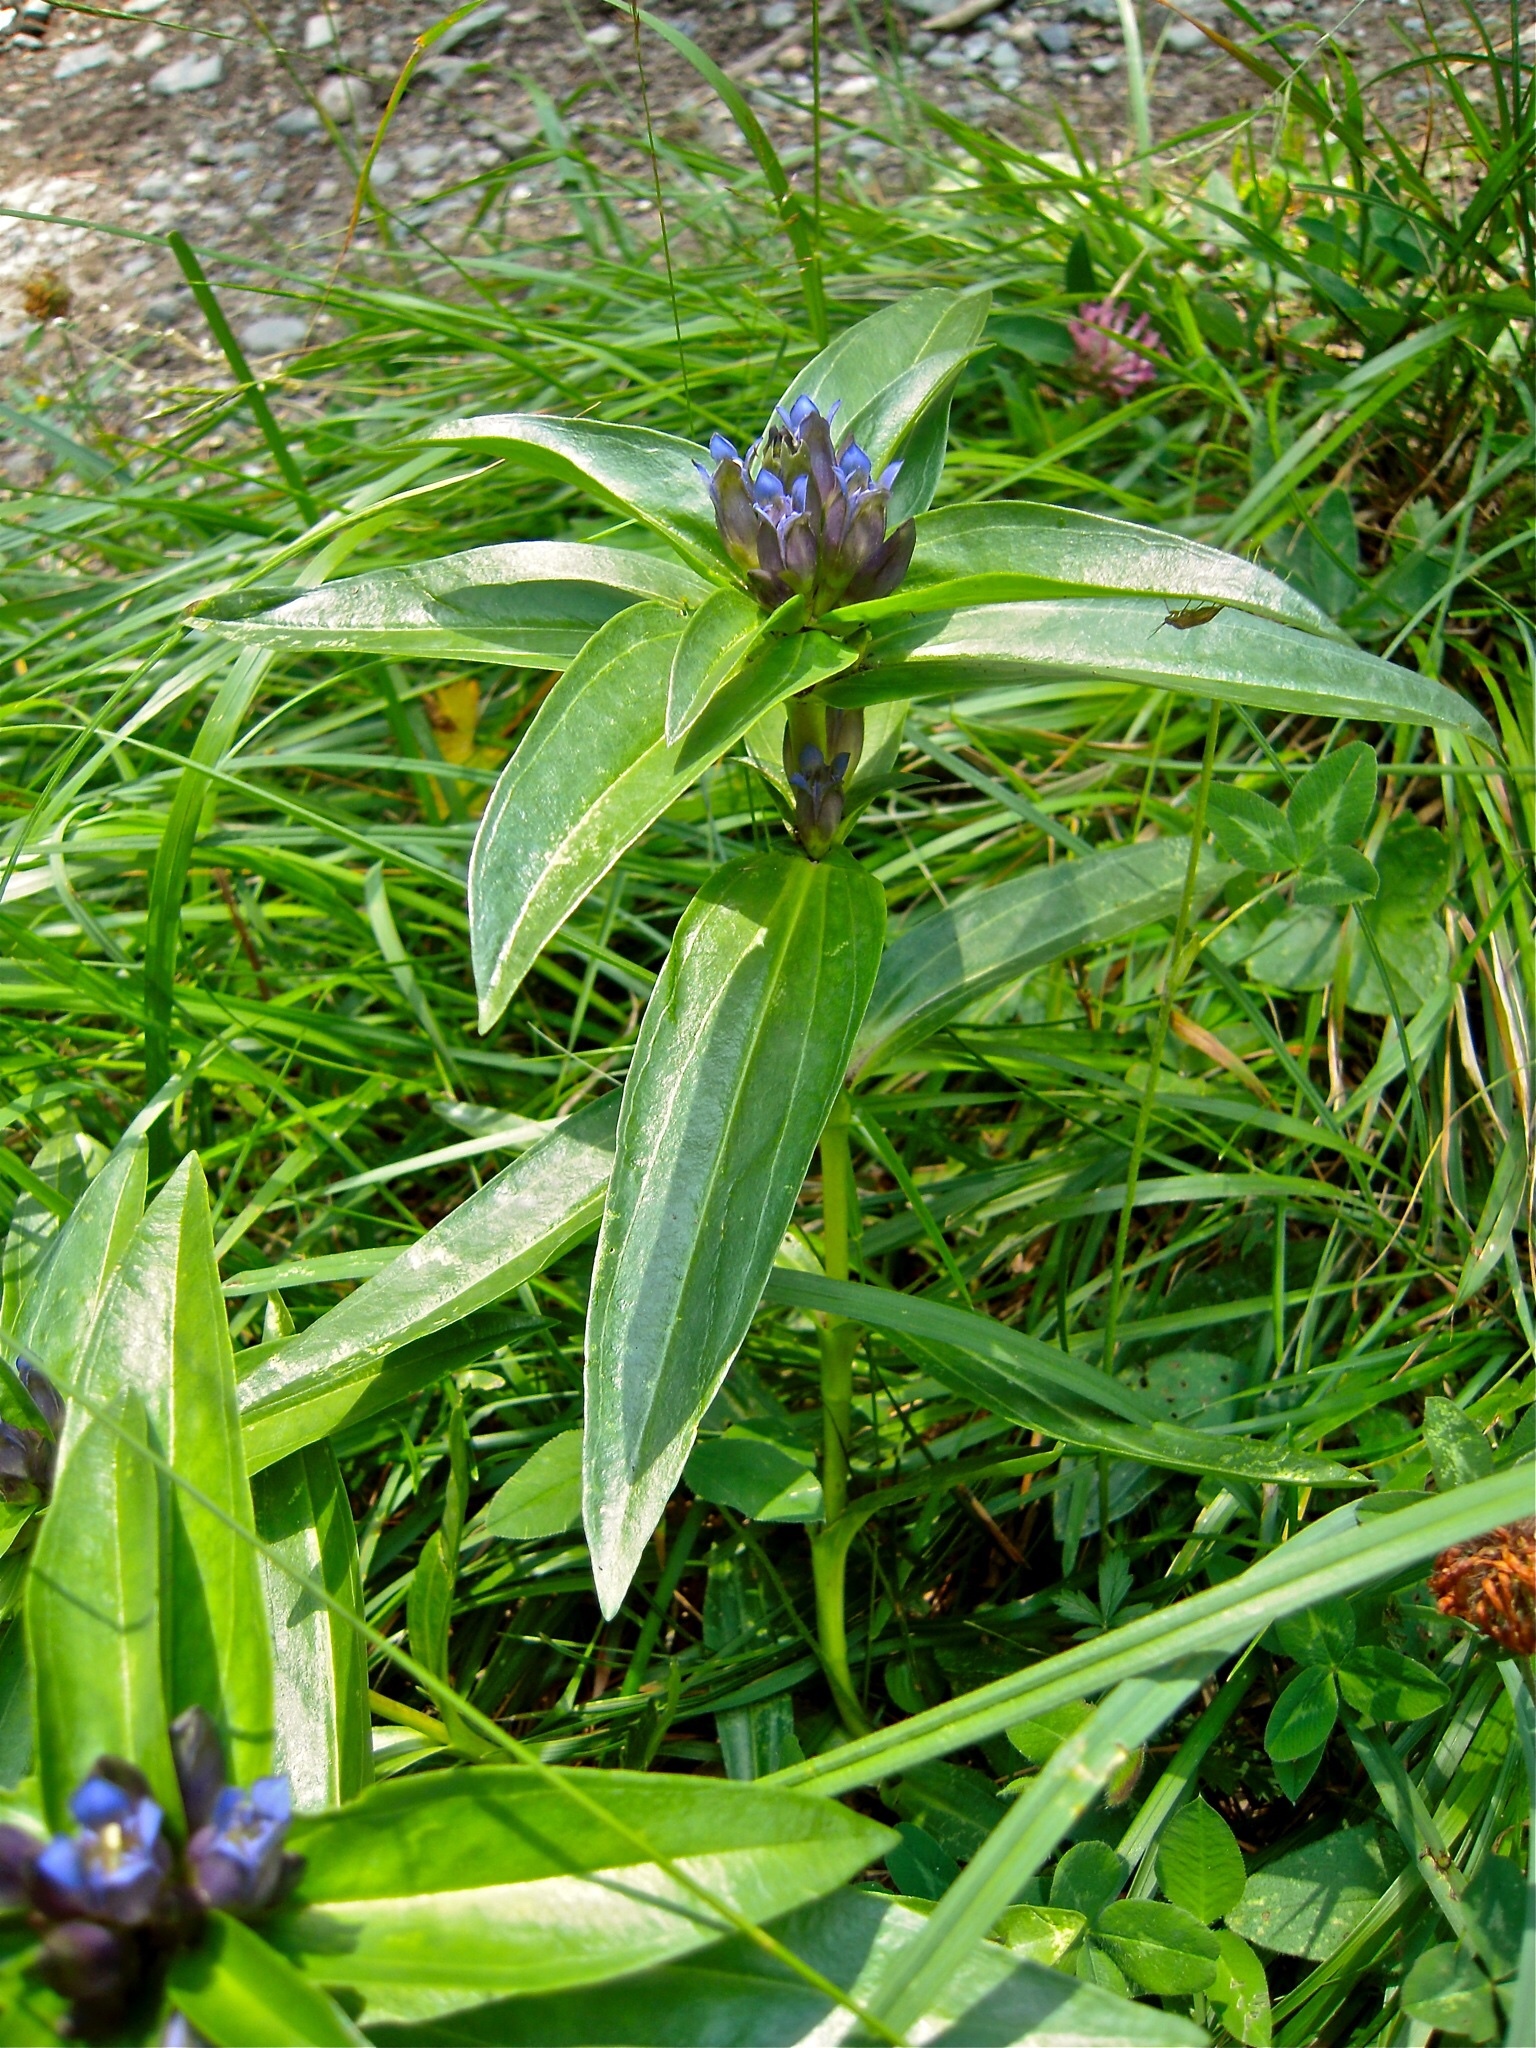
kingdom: Plantae
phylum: Tracheophyta
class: Magnoliopsida
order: Gentianales
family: Gentianaceae
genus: Gentiana
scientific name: Gentiana cruciata
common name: Cross gentian
